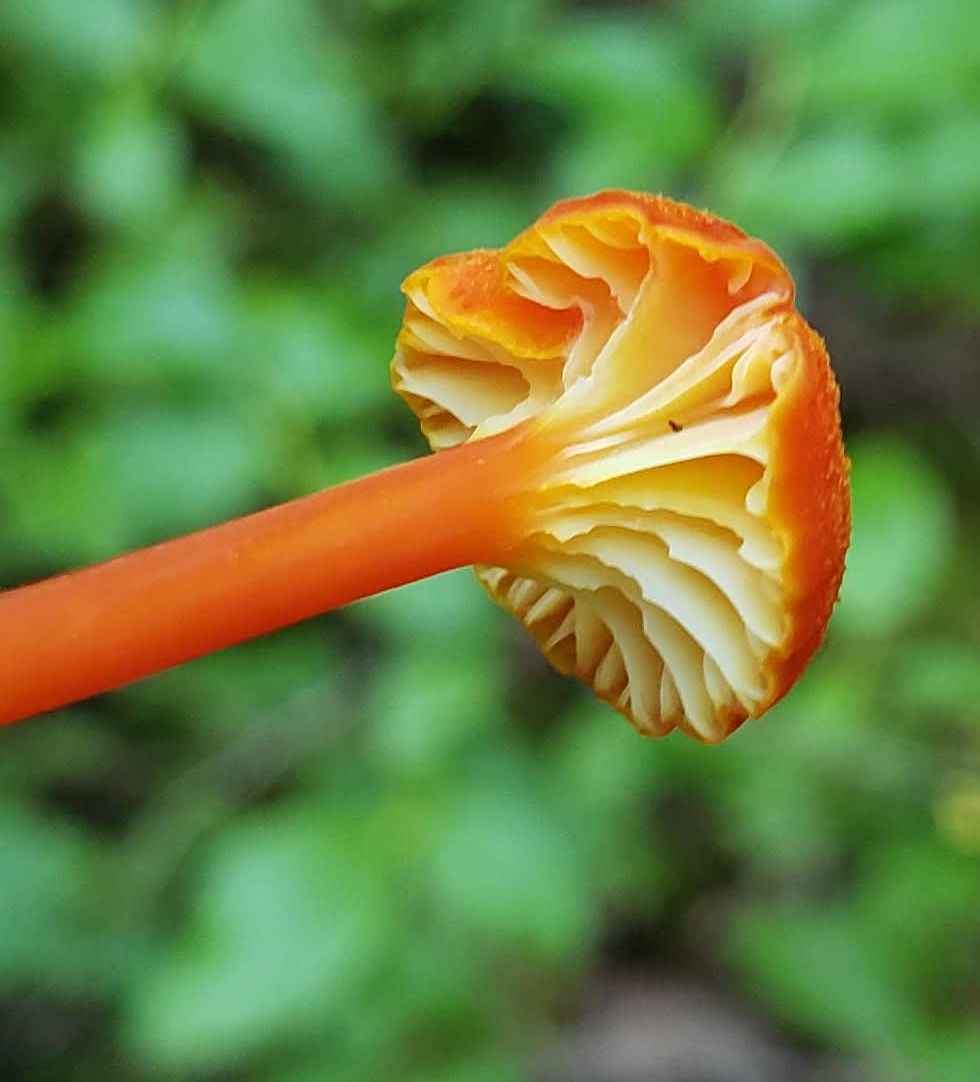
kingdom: Fungi
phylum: Basidiomycota
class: Agaricomycetes
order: Agaricales
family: Hygrophoraceae
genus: Hygrocybe
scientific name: Hygrocybe cantharellus
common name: Goblet waxcap
